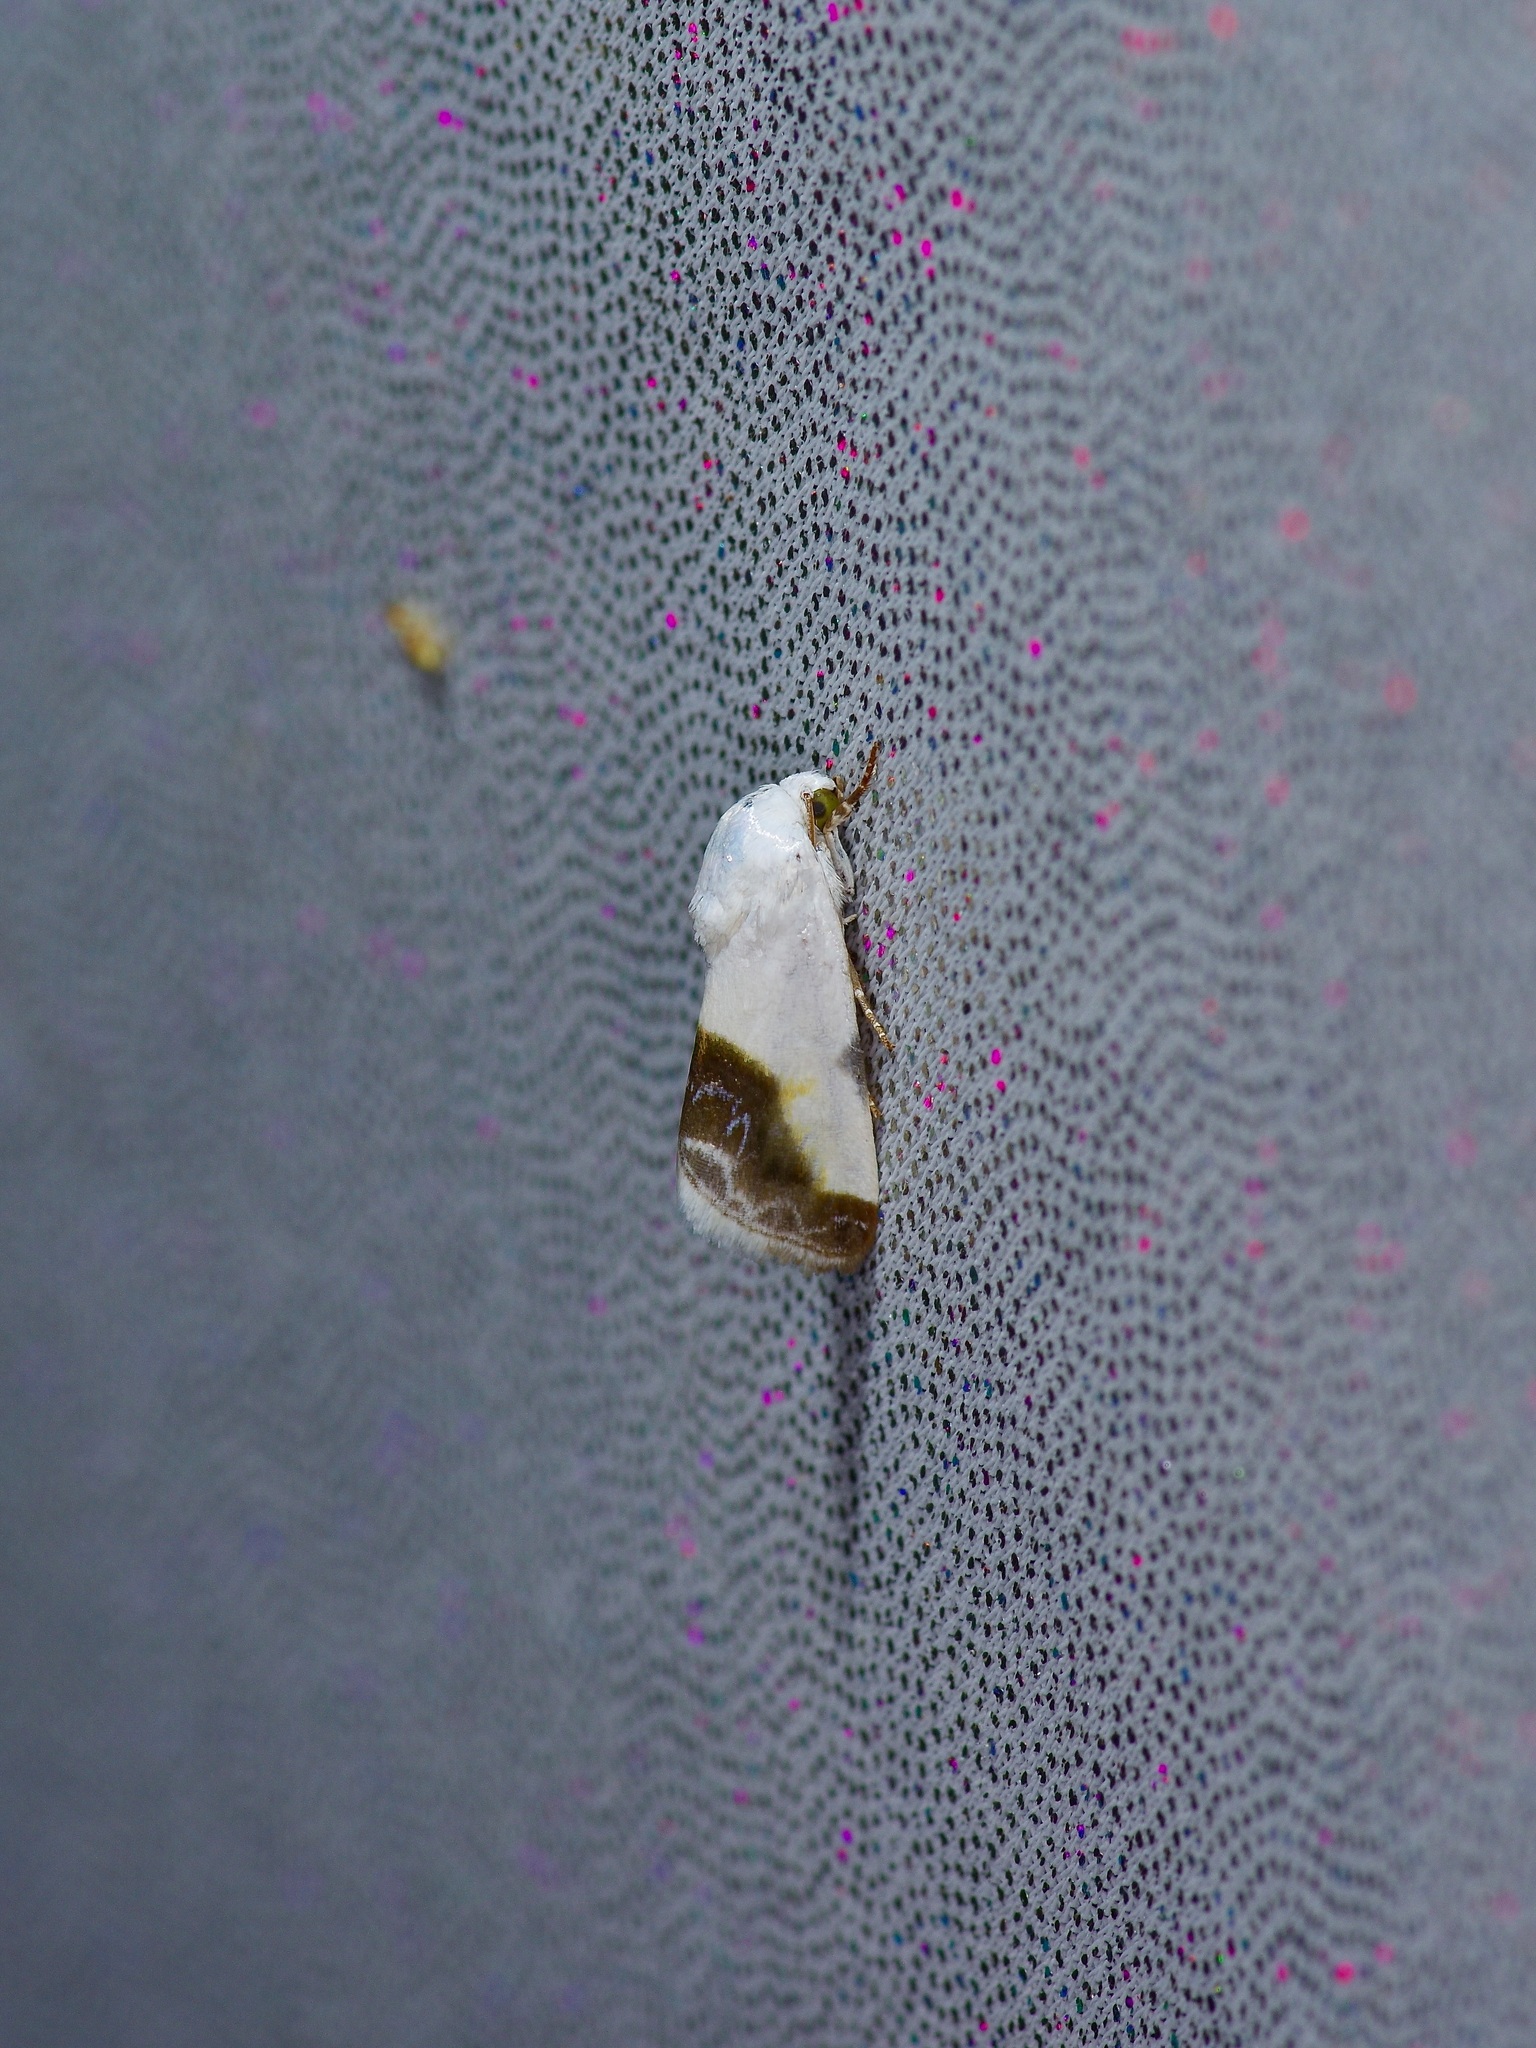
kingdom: Animalia
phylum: Arthropoda
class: Insecta
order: Lepidoptera
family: Noctuidae
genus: Acontia
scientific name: Acontia cretata
